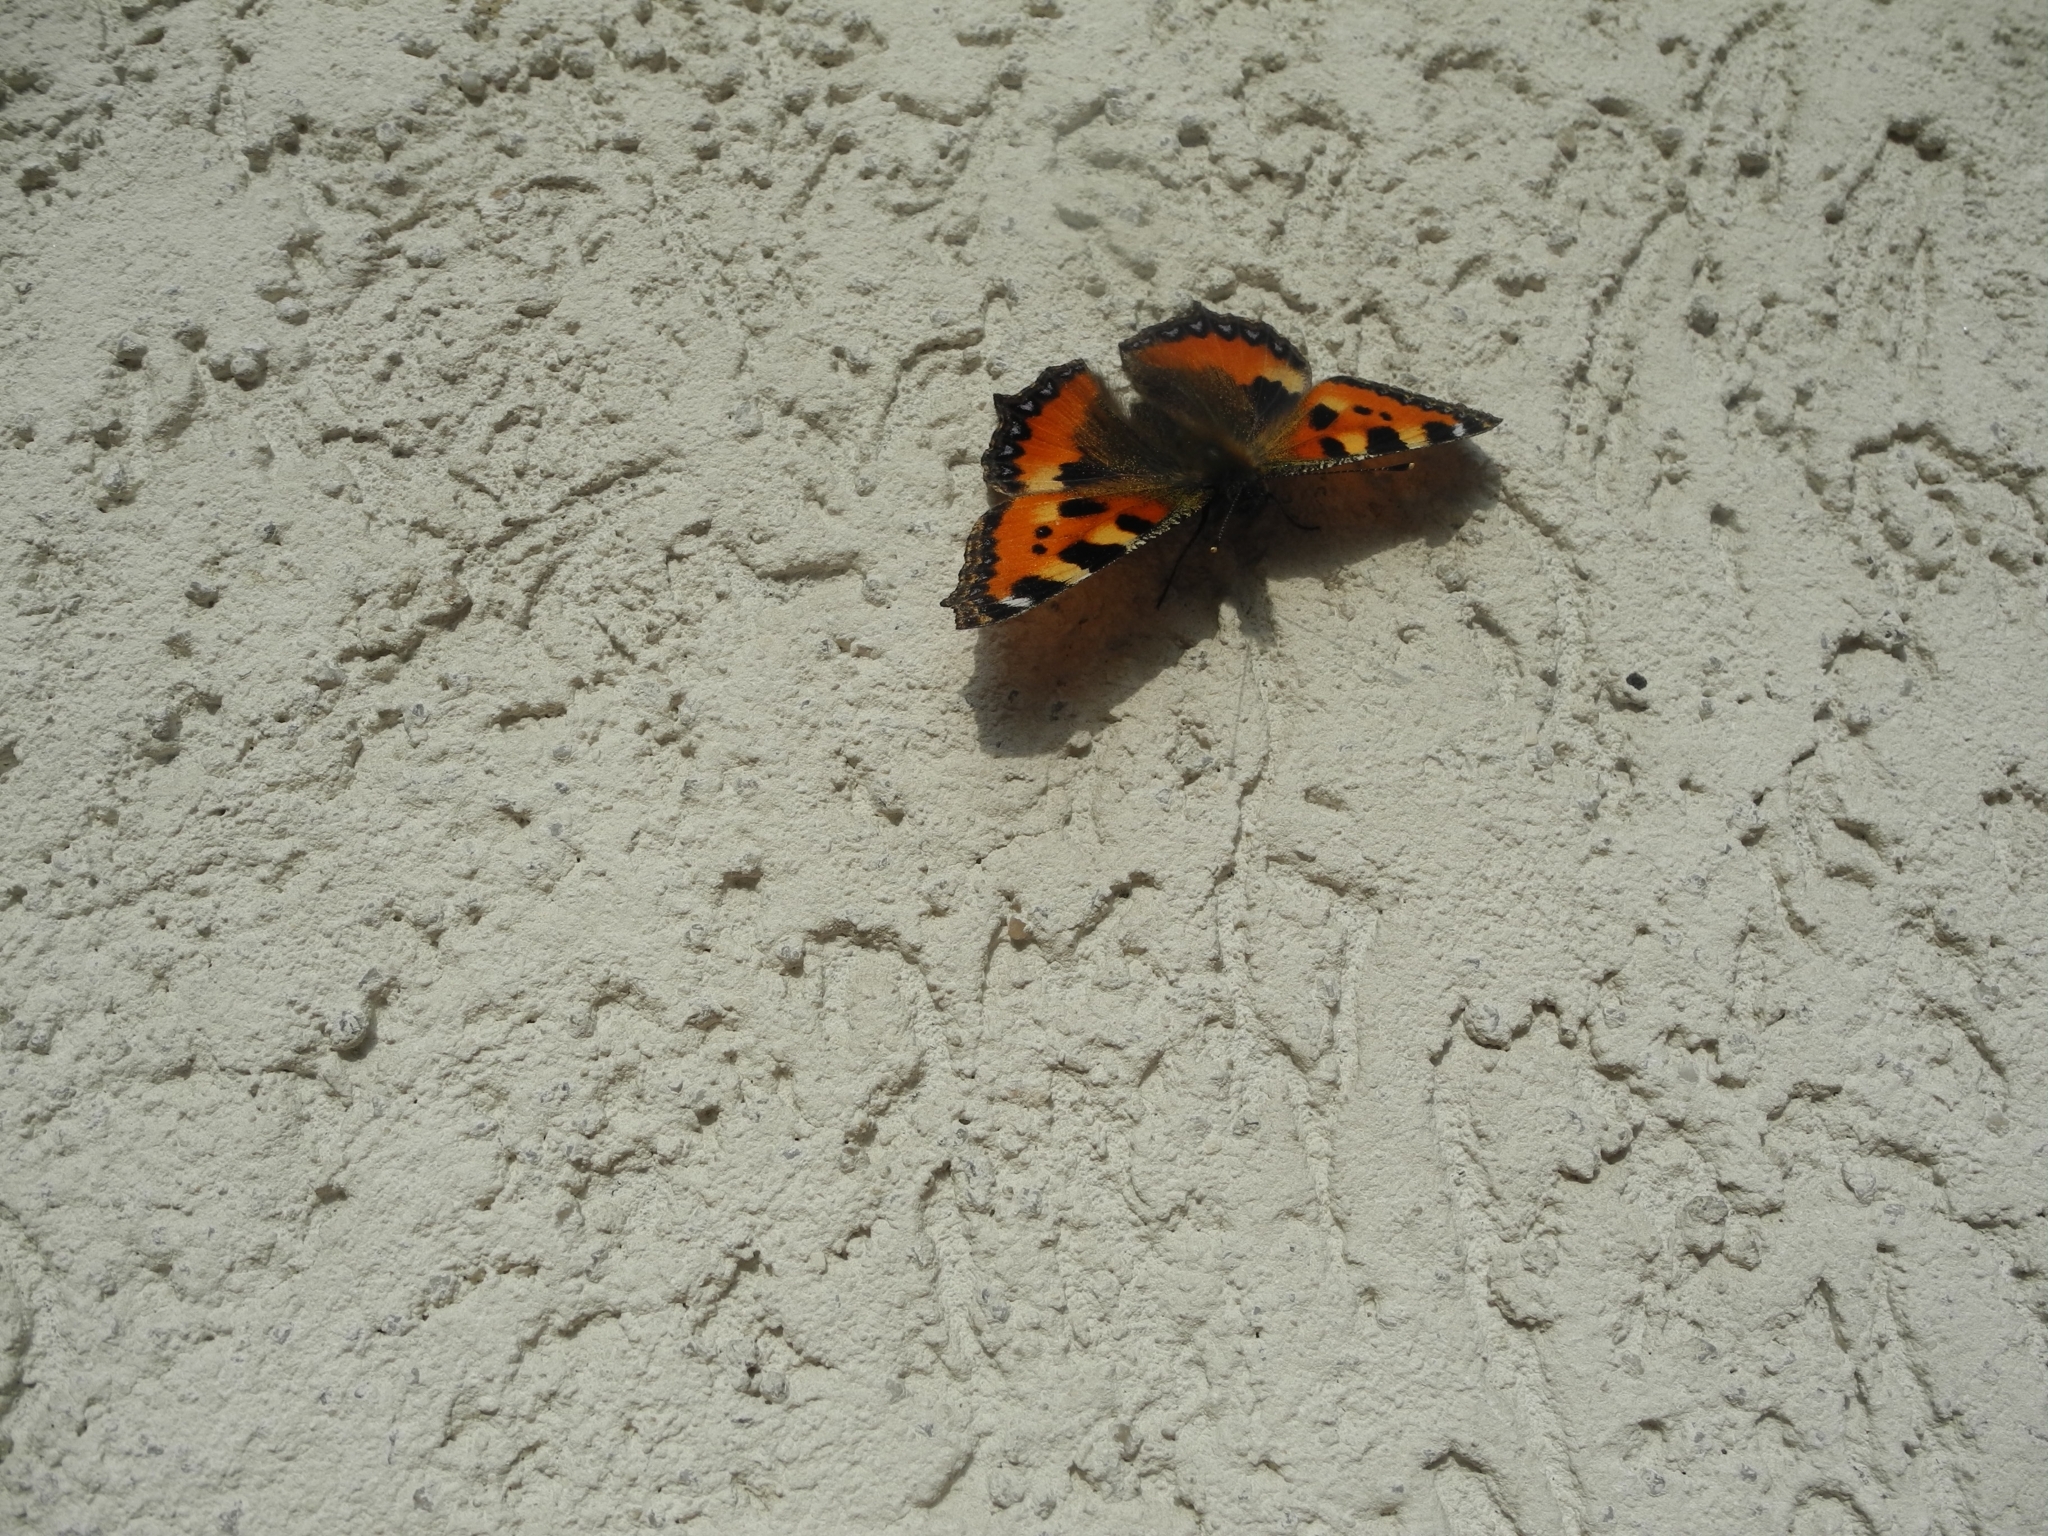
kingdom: Animalia
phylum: Arthropoda
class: Insecta
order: Lepidoptera
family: Nymphalidae
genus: Aglais
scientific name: Aglais urticae
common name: Small tortoiseshell
